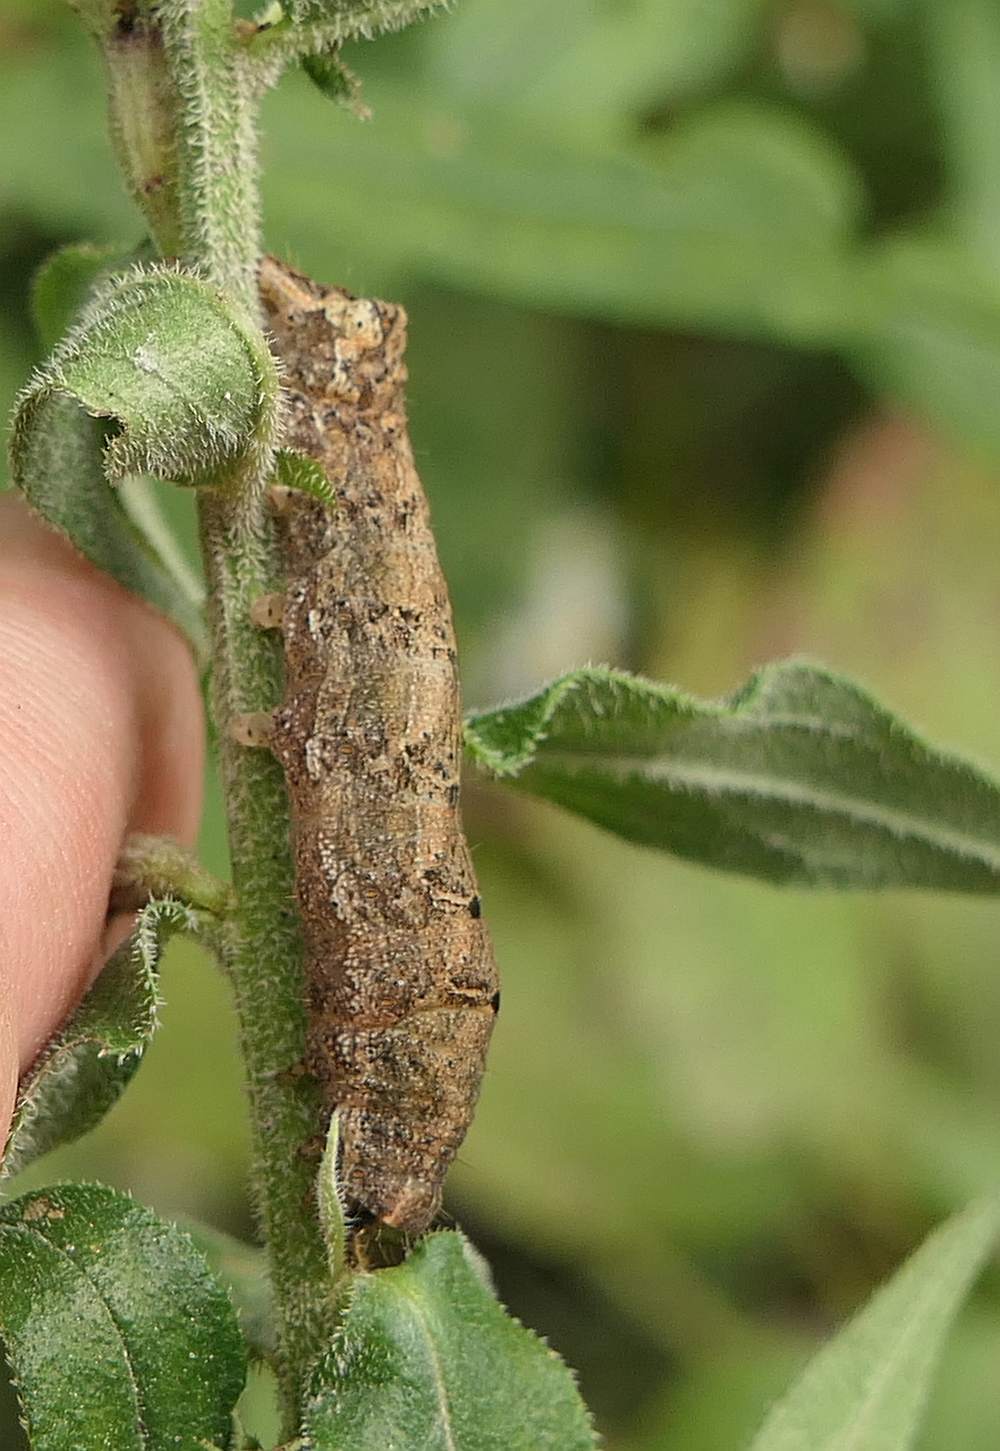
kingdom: Animalia
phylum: Arthropoda
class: Insecta
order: Lepidoptera
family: Noctuidae
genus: Orthodes
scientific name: Orthodes majuscula
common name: Rustic quaker
